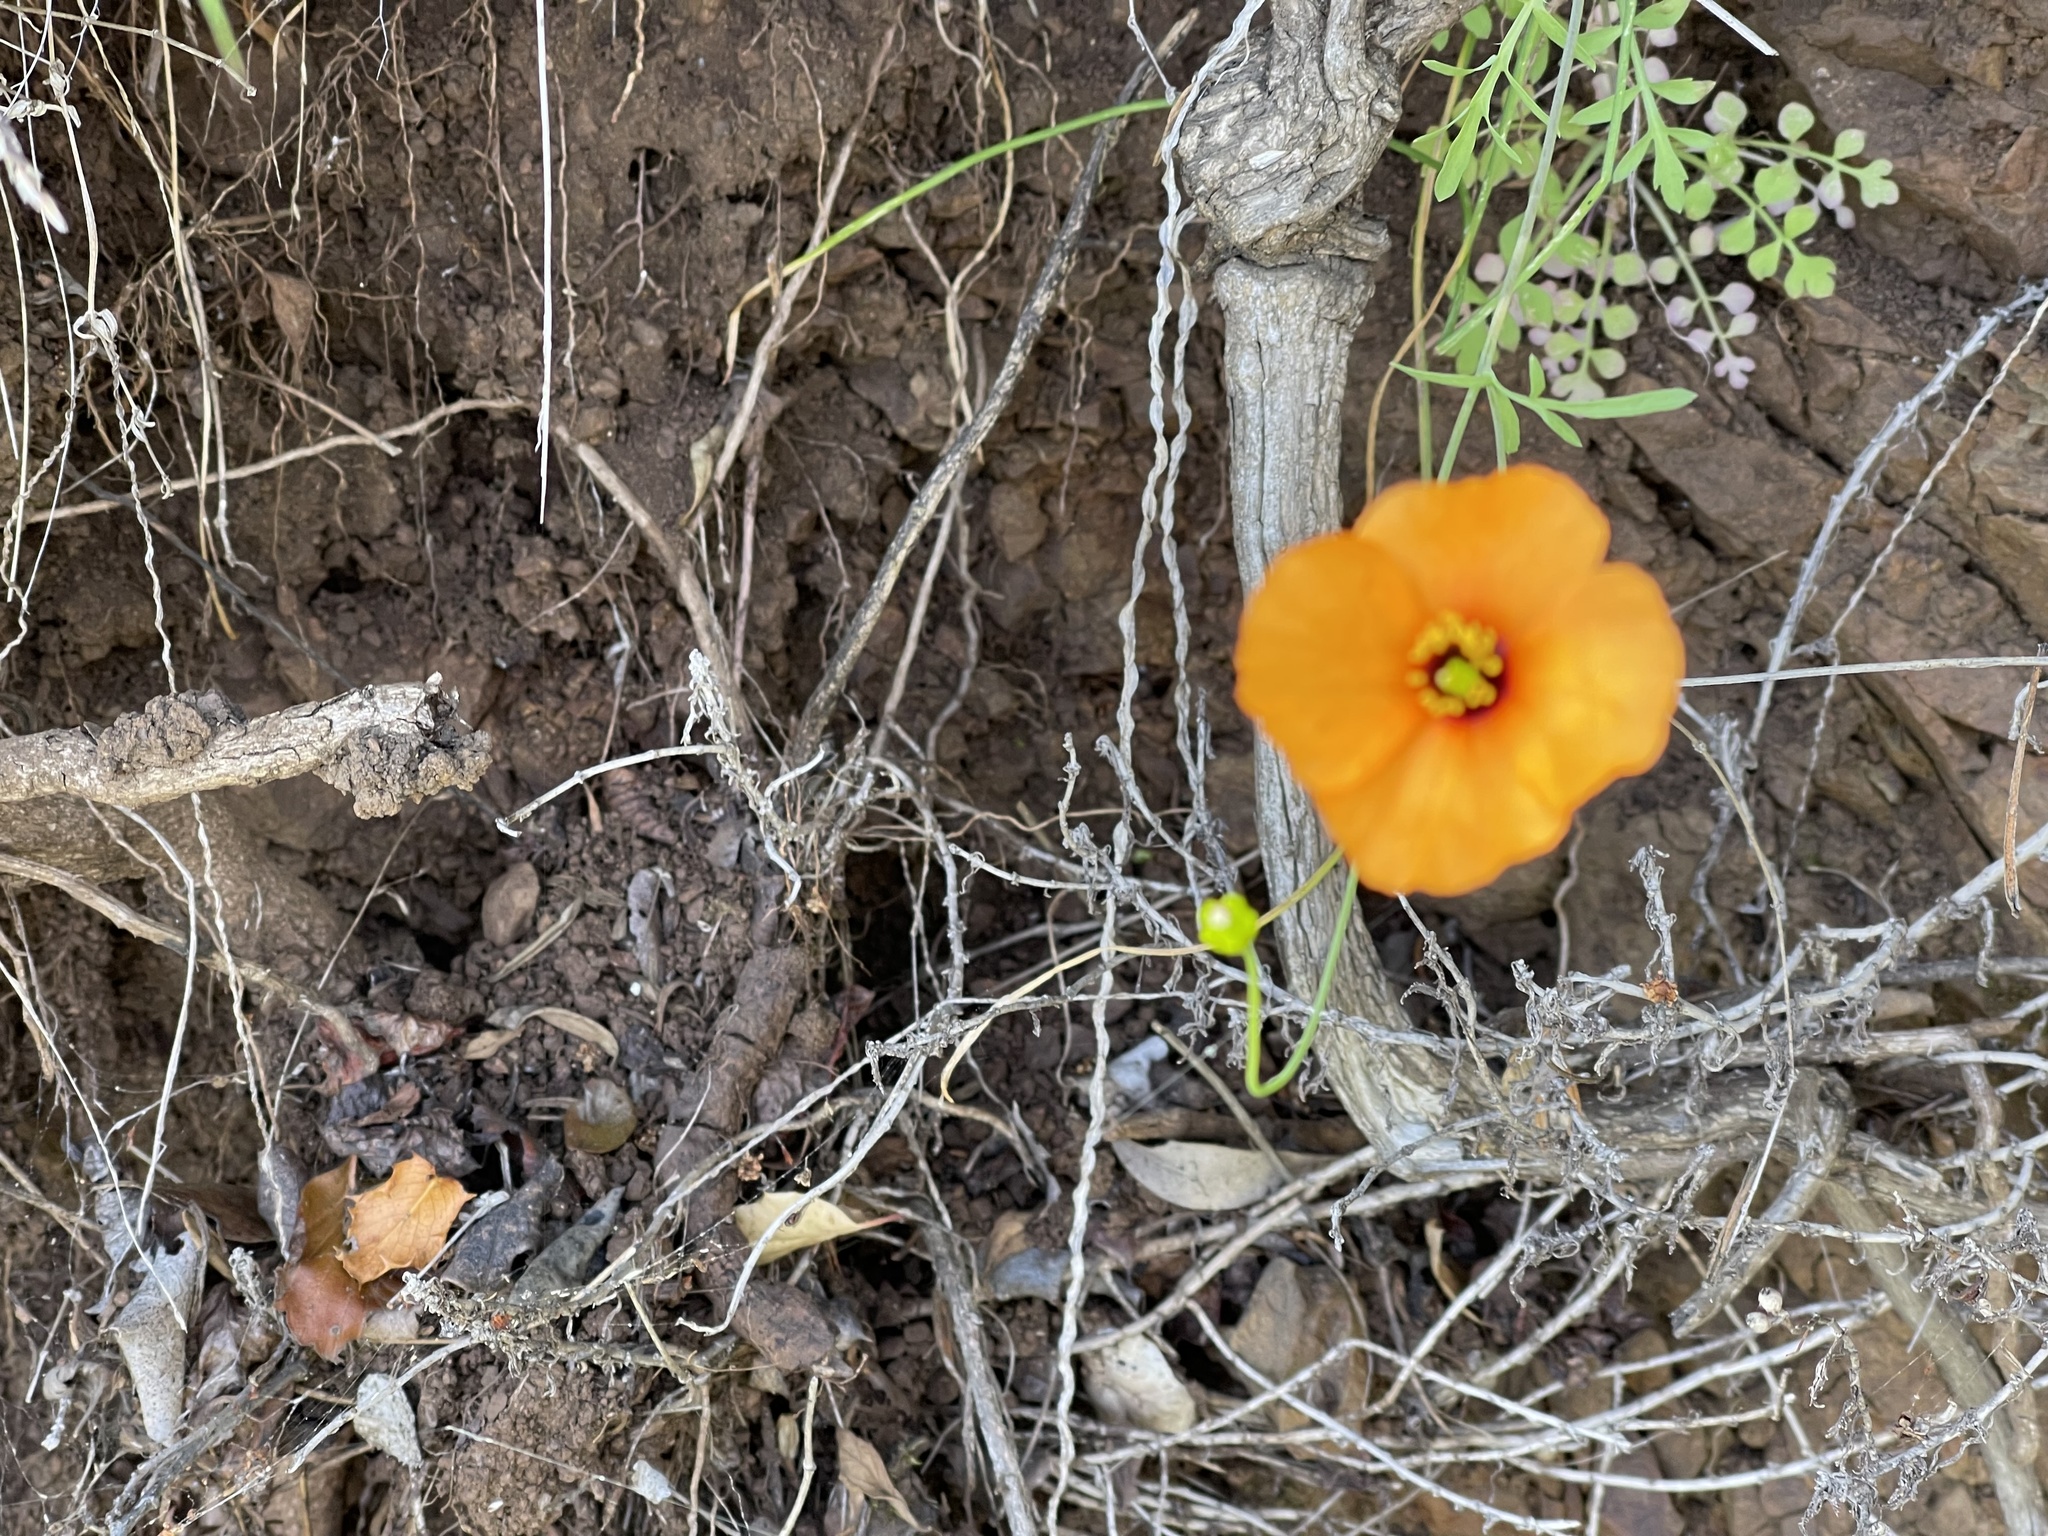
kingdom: Plantae
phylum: Tracheophyta
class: Magnoliopsida
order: Ranunculales
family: Papaveraceae
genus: Stylomecon
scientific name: Stylomecon heterophylla
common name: Flaming-poppy
